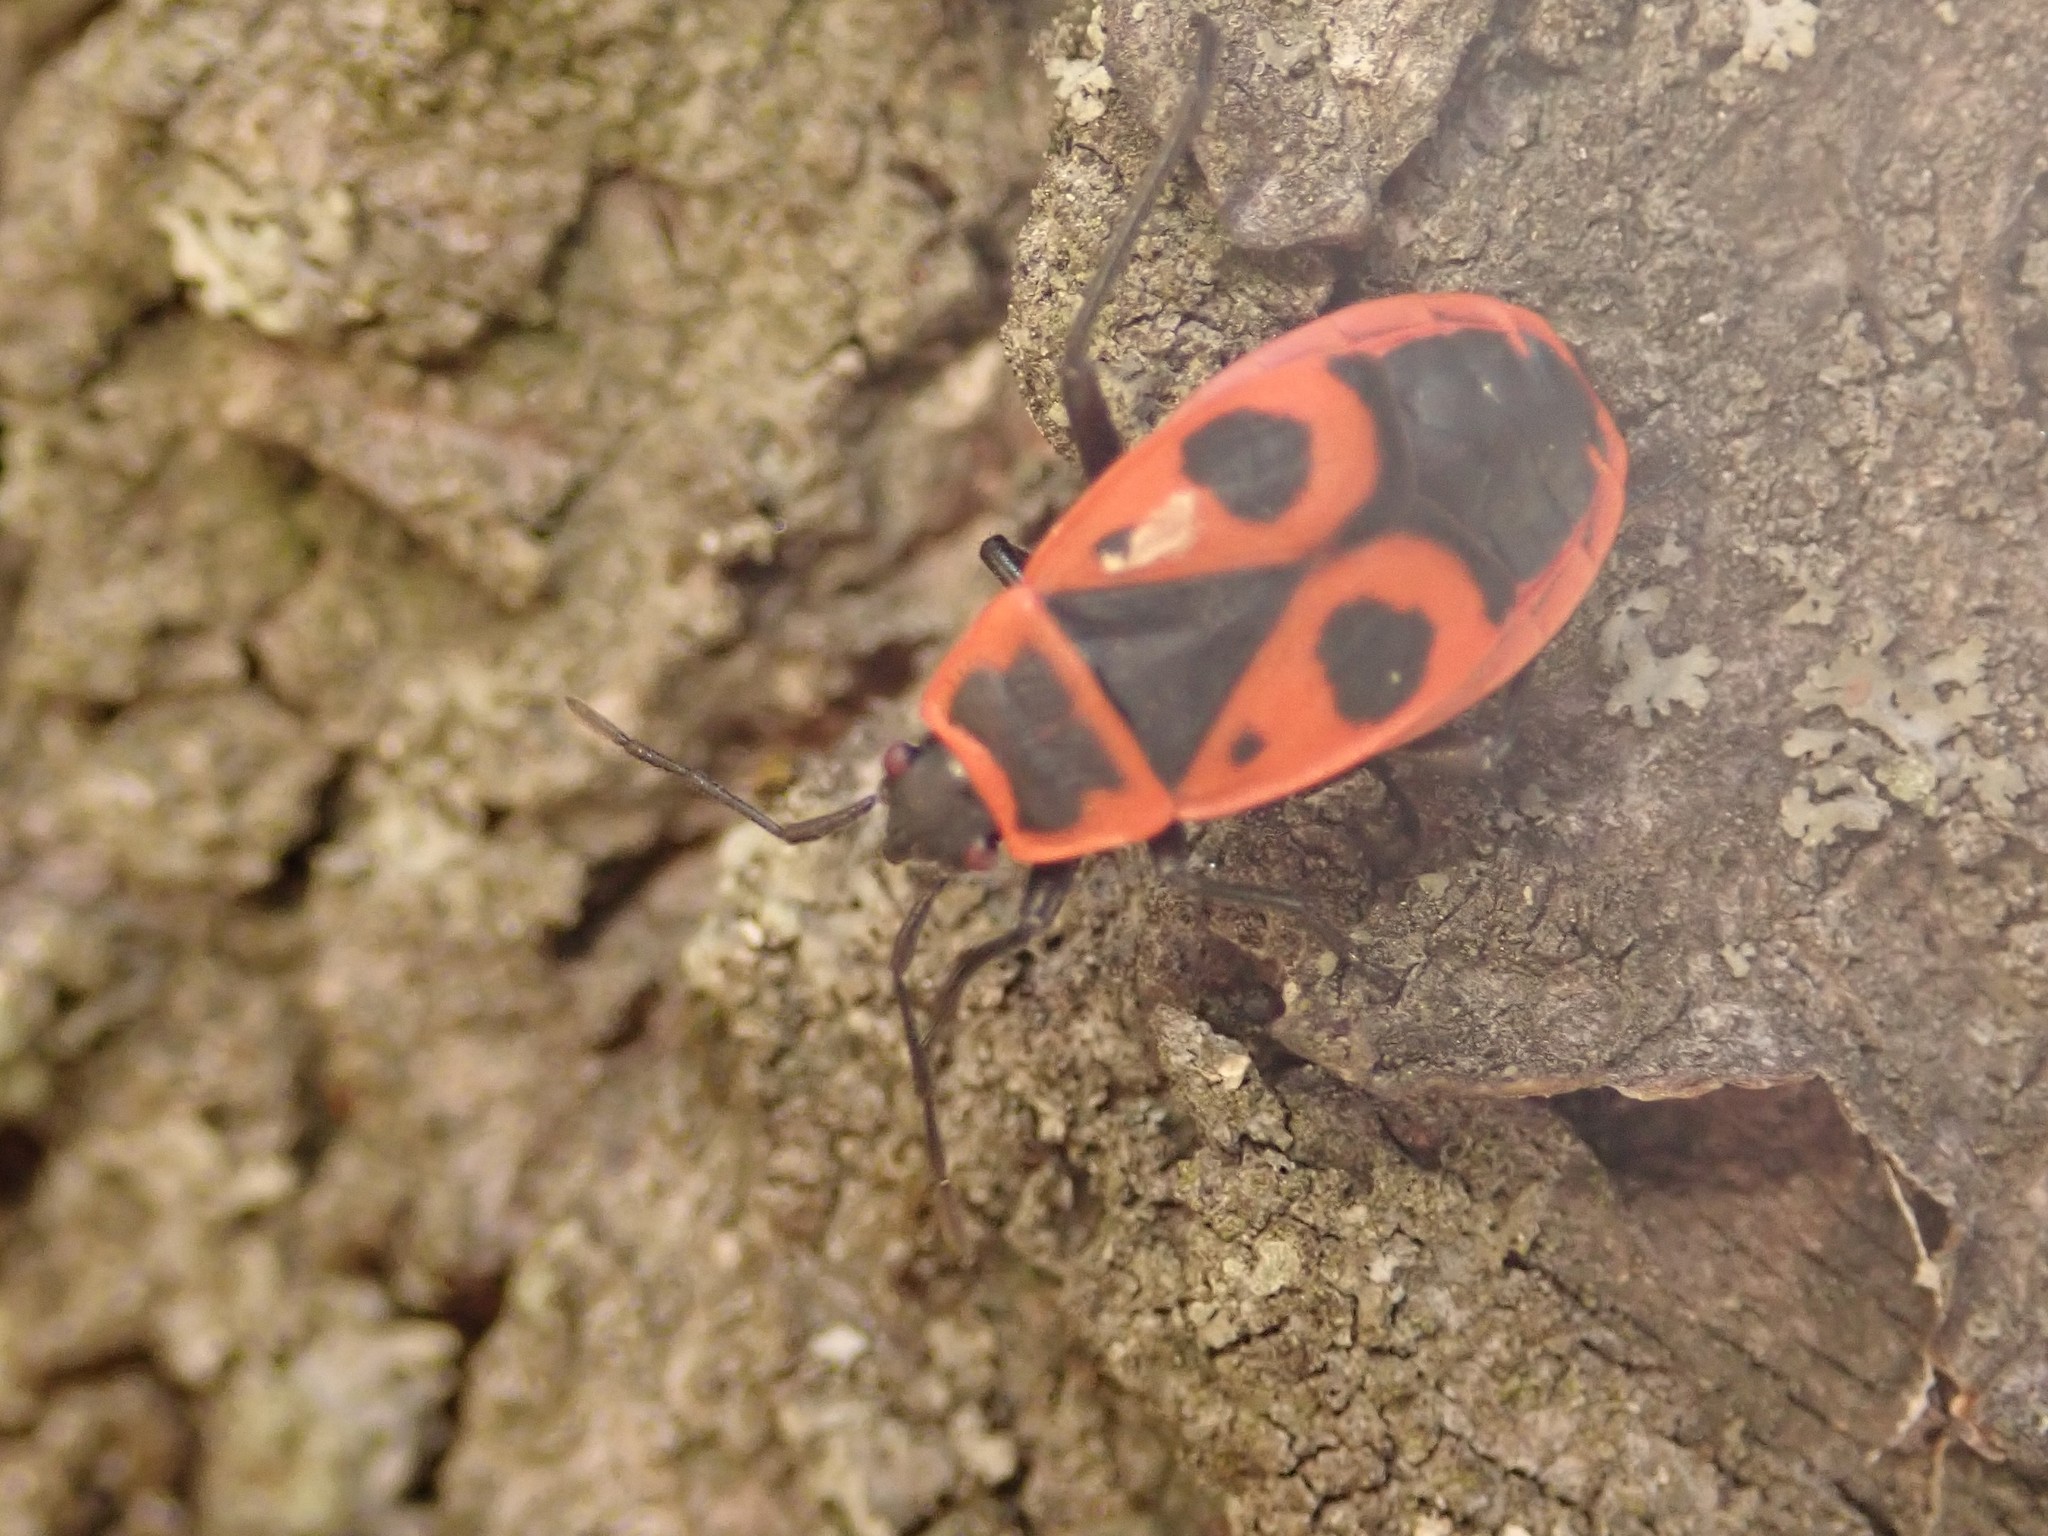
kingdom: Animalia
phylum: Arthropoda
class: Insecta
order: Hemiptera
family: Pyrrhocoridae
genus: Pyrrhocoris
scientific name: Pyrrhocoris apterus
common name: Firebug
